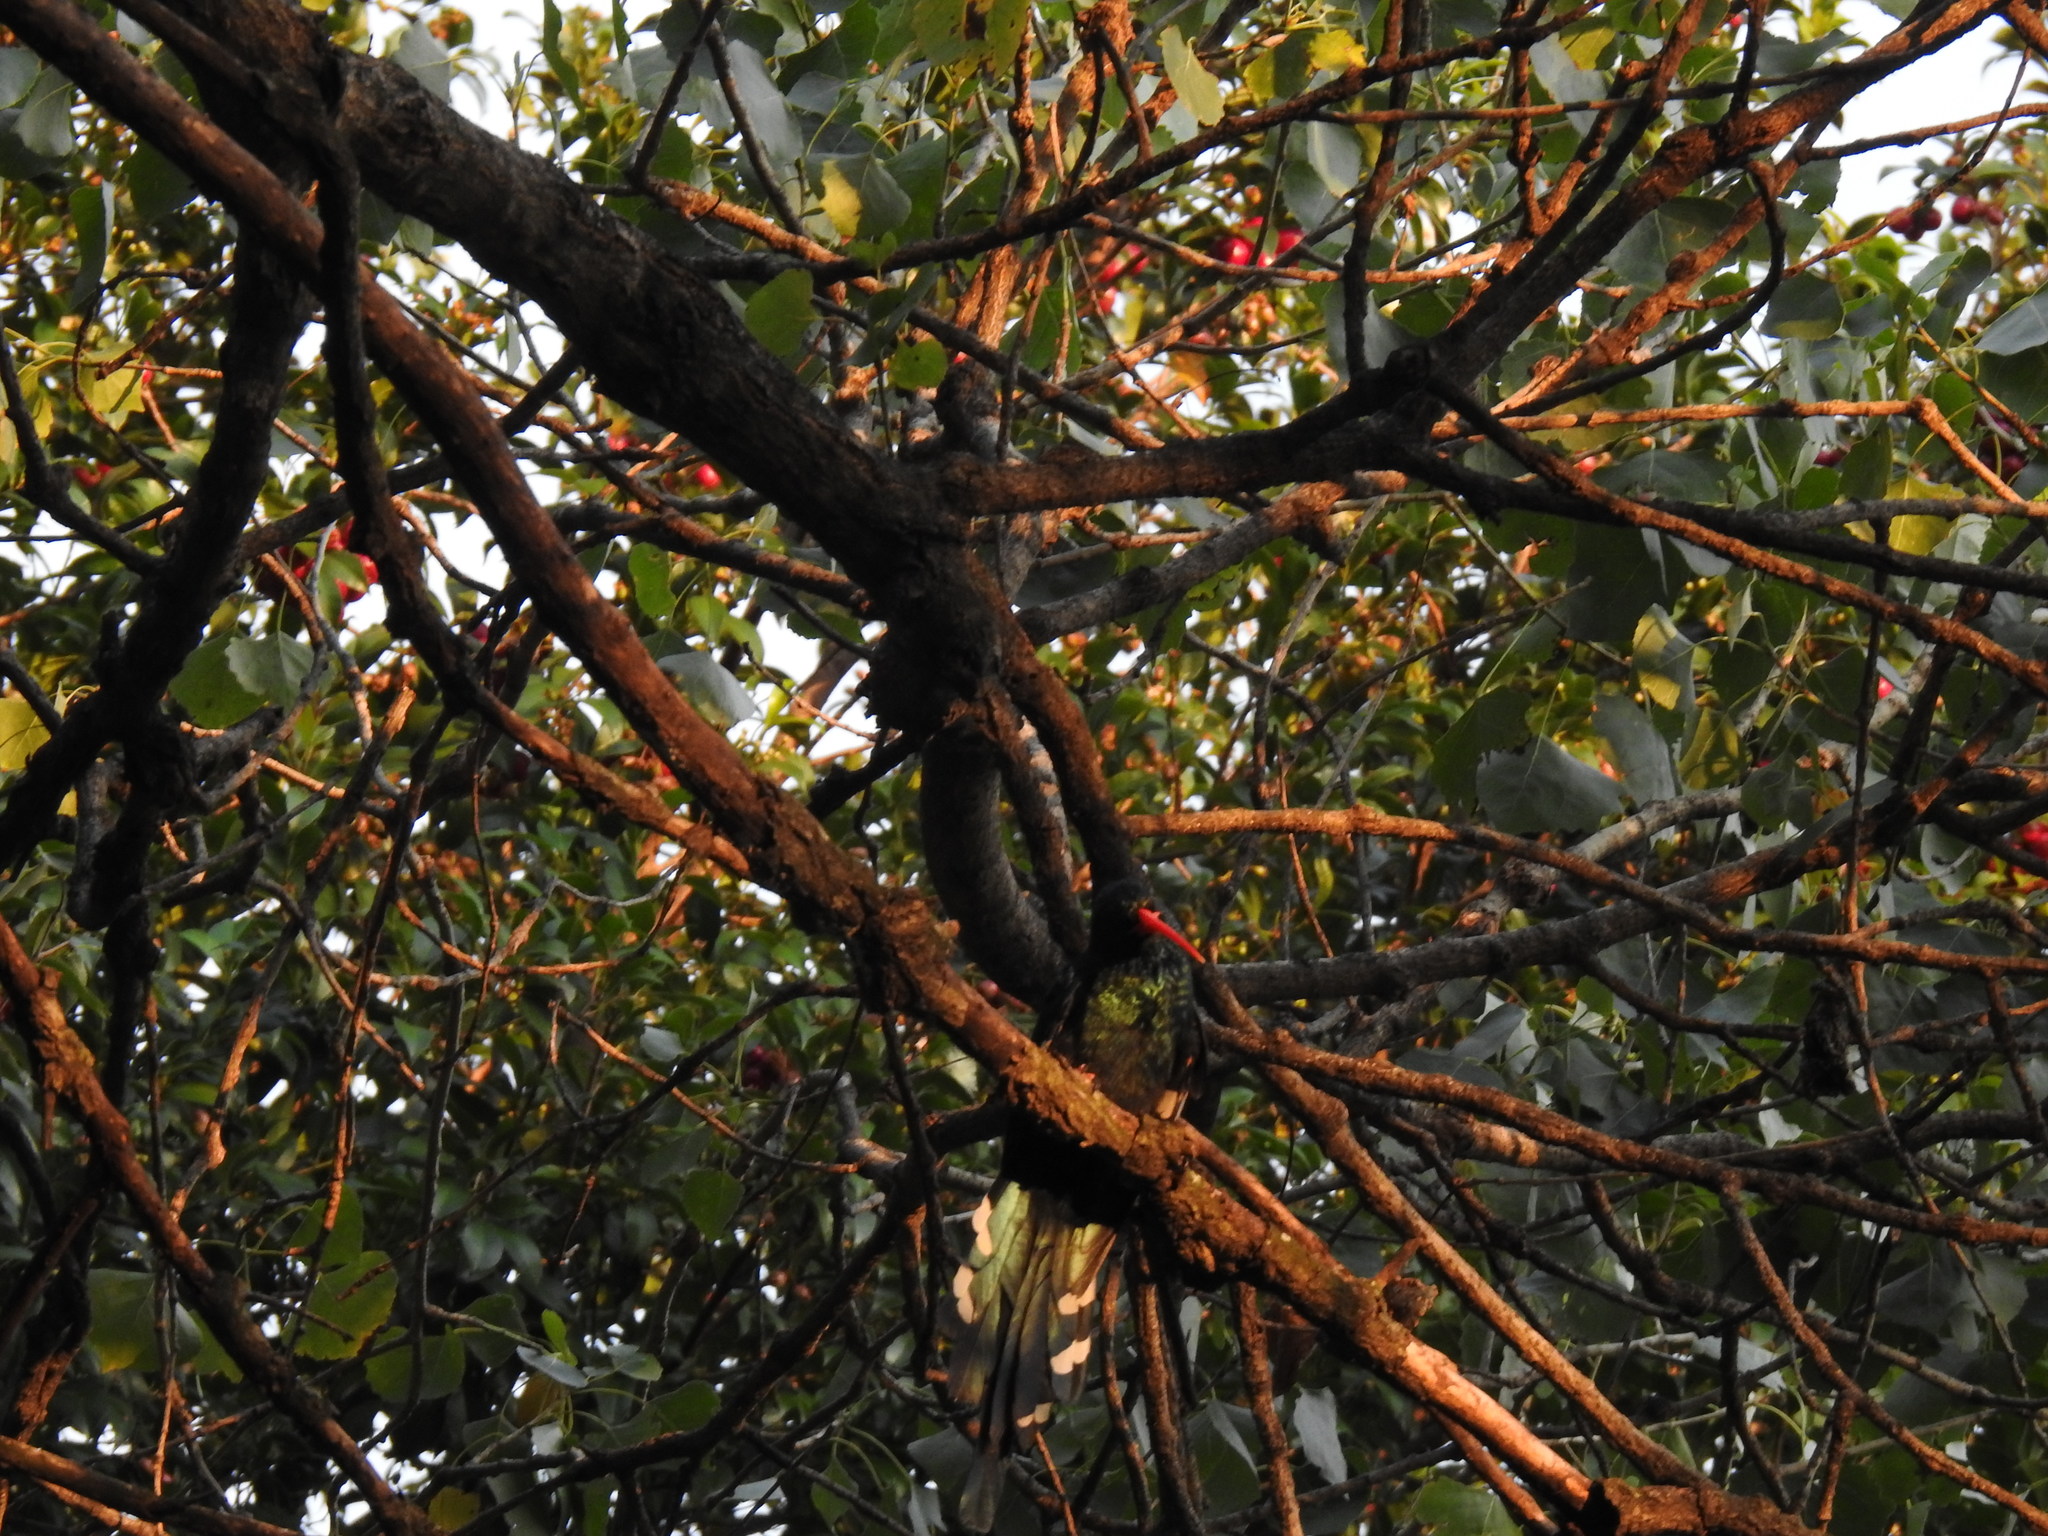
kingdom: Animalia
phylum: Chordata
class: Aves
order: Bucerotiformes
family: Phoeniculidae
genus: Phoeniculus
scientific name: Phoeniculus purpureus
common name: Green woodhoopoe
